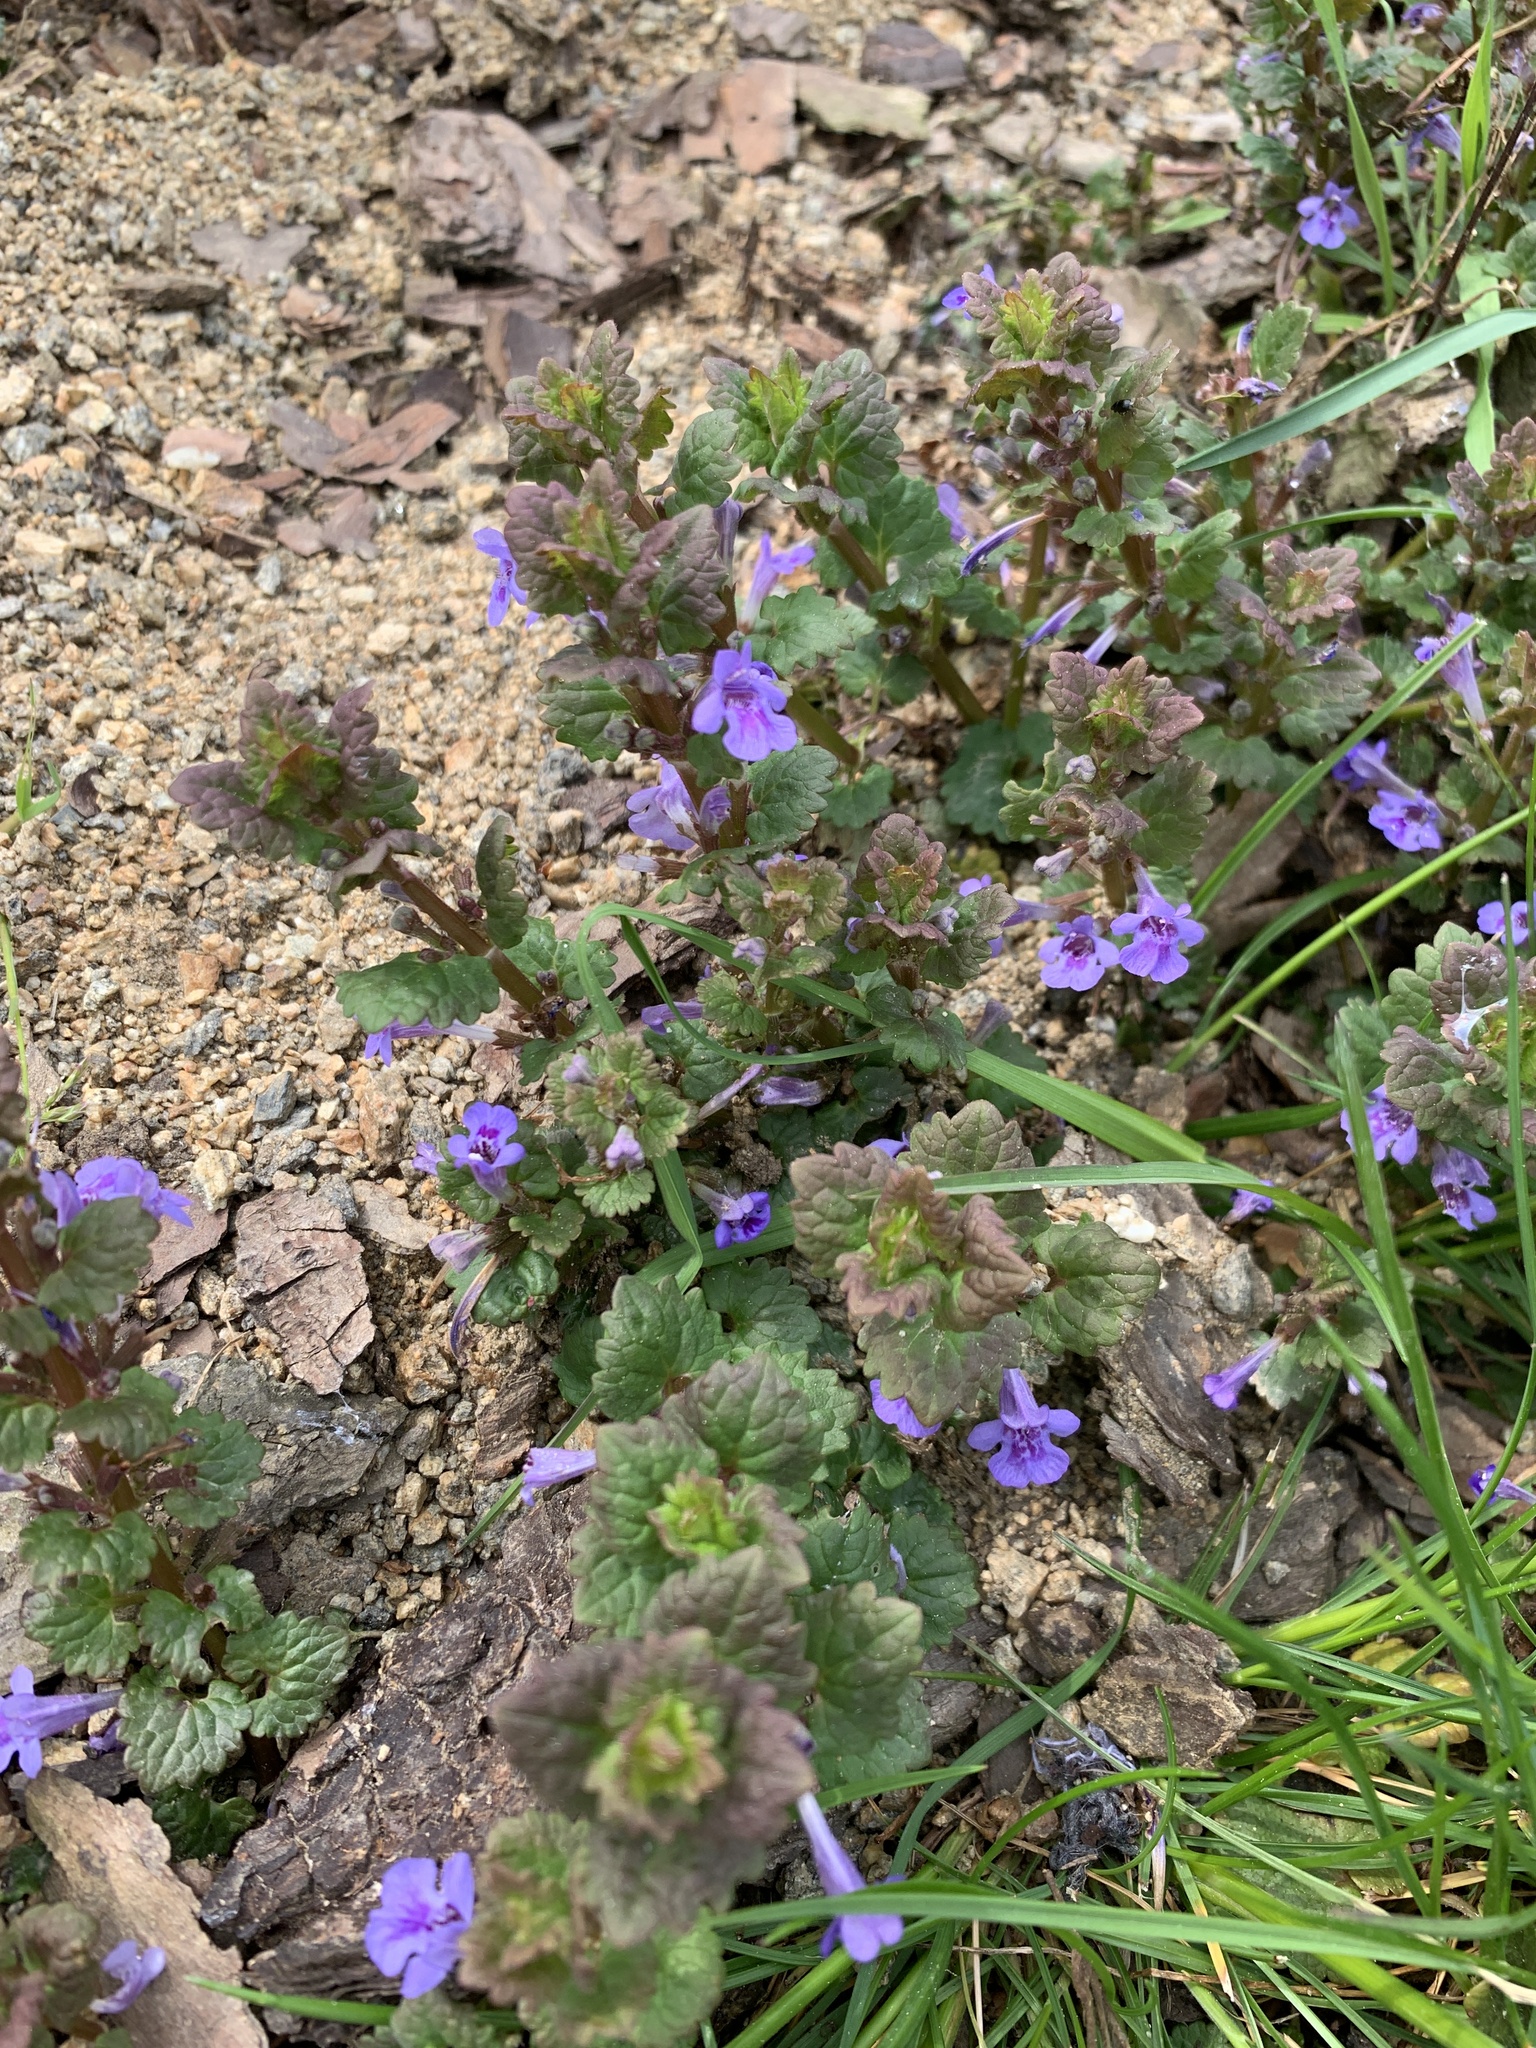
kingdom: Plantae
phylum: Tracheophyta
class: Magnoliopsida
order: Lamiales
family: Lamiaceae
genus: Glechoma
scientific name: Glechoma hederacea
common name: Ground ivy
